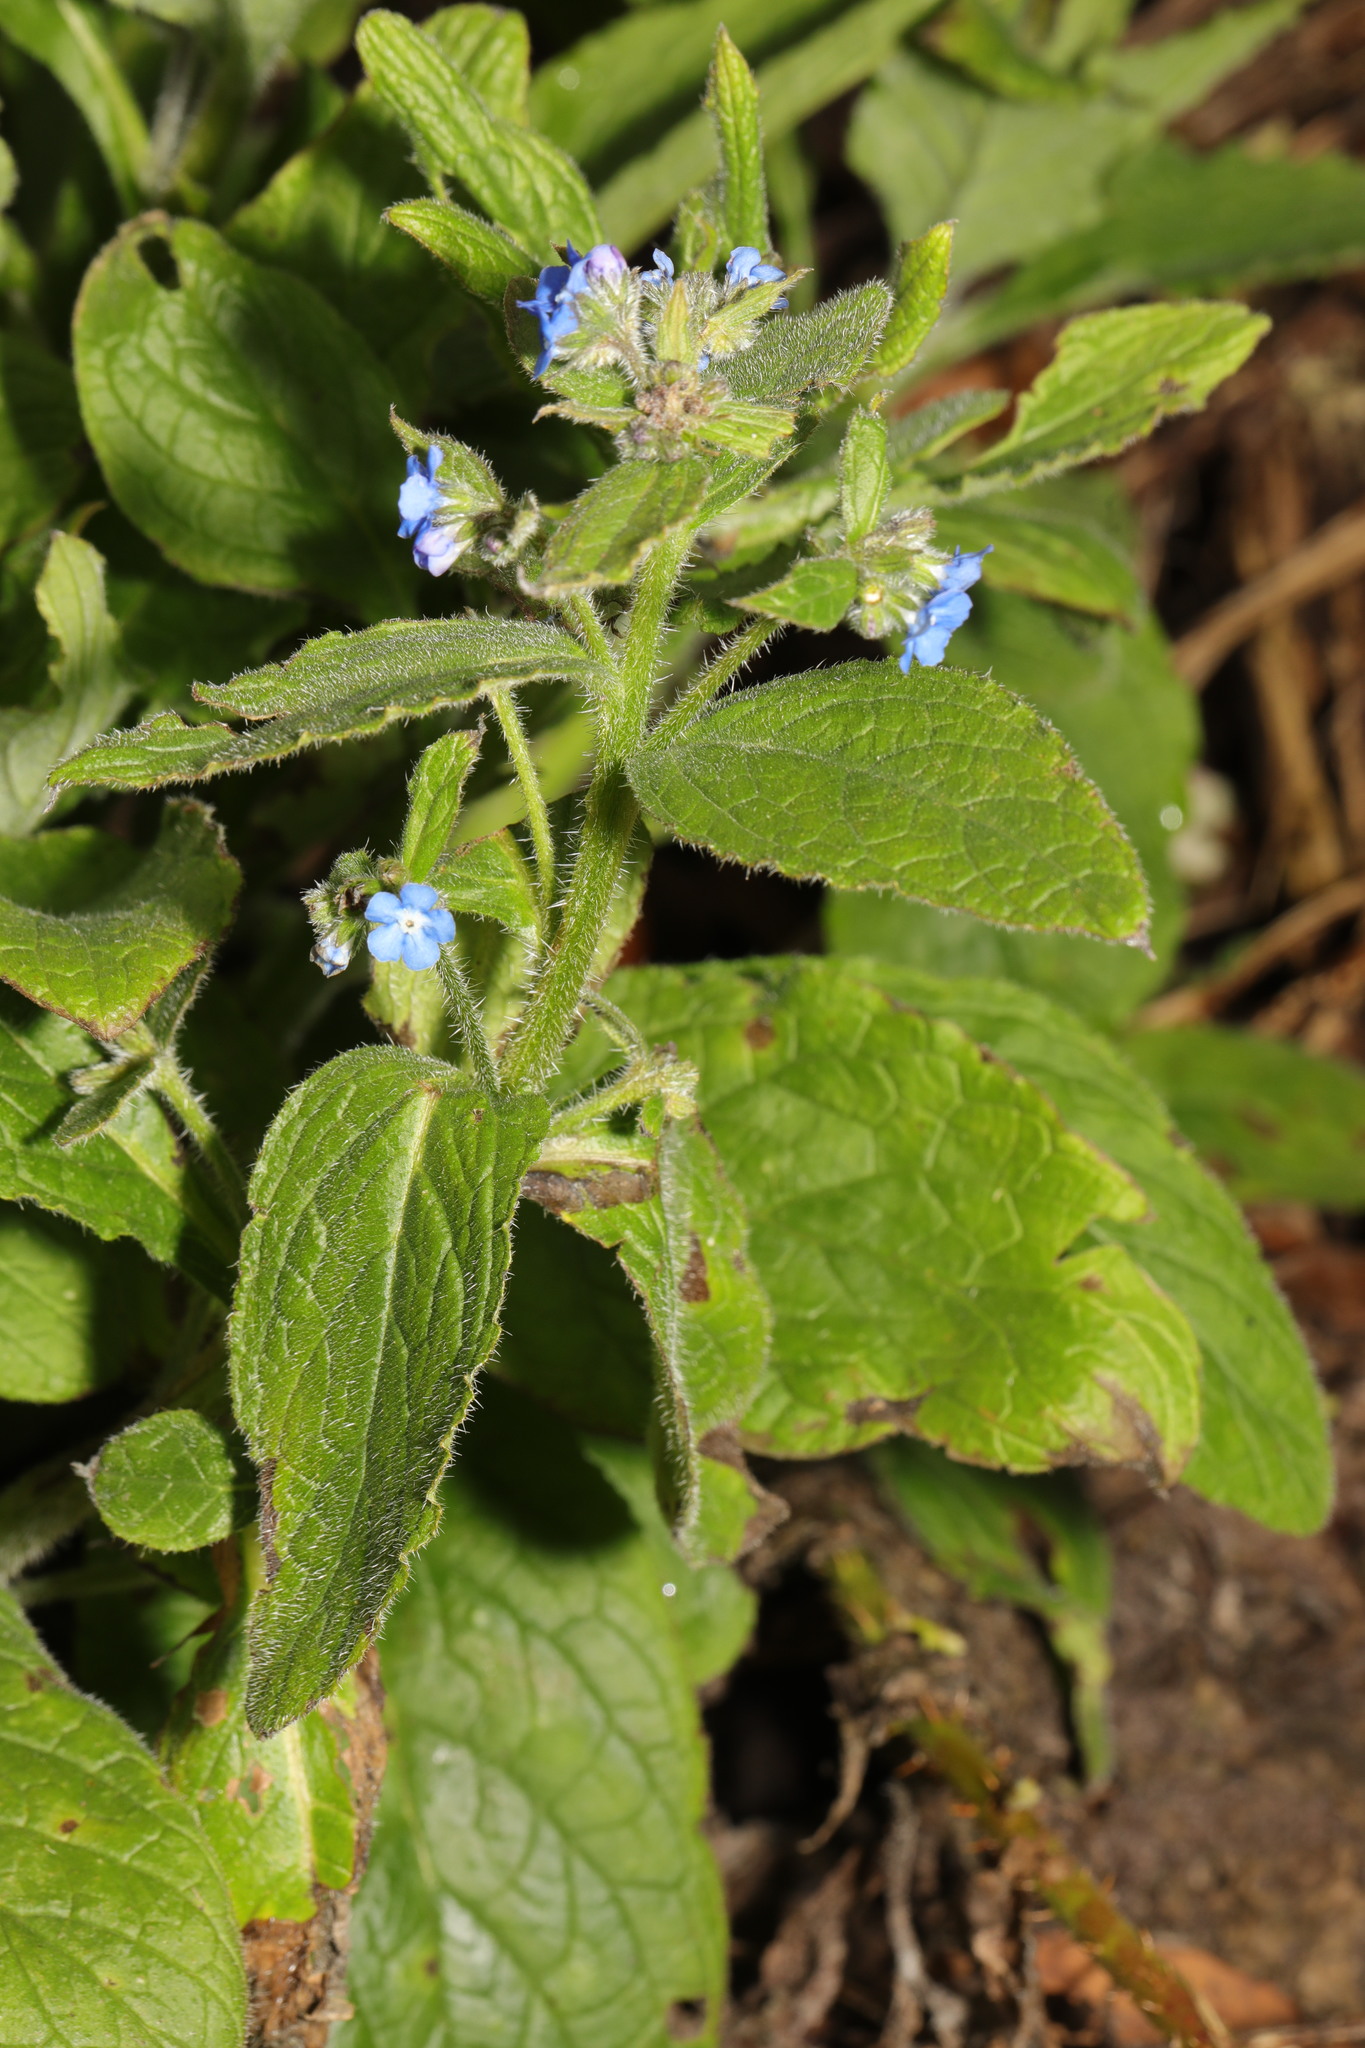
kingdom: Plantae
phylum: Tracheophyta
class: Magnoliopsida
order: Boraginales
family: Boraginaceae
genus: Pentaglottis
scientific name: Pentaglottis sempervirens
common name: Green alkanet
